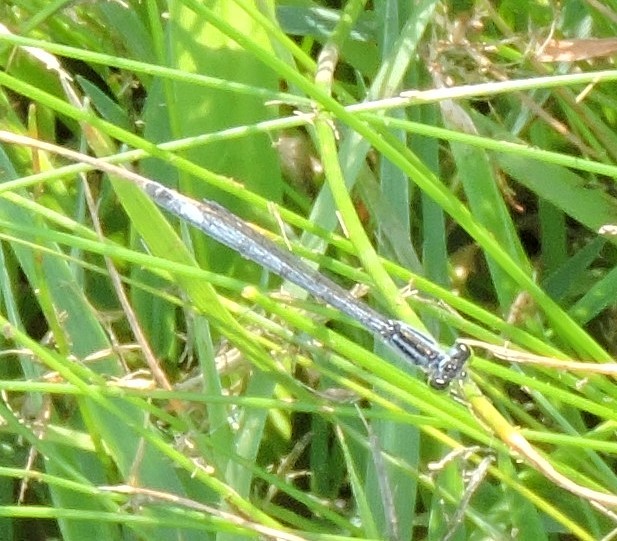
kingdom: Animalia
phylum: Arthropoda
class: Insecta
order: Odonata
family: Coenagrionidae
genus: Ischnura
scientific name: Ischnura verticalis
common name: Eastern forktail
